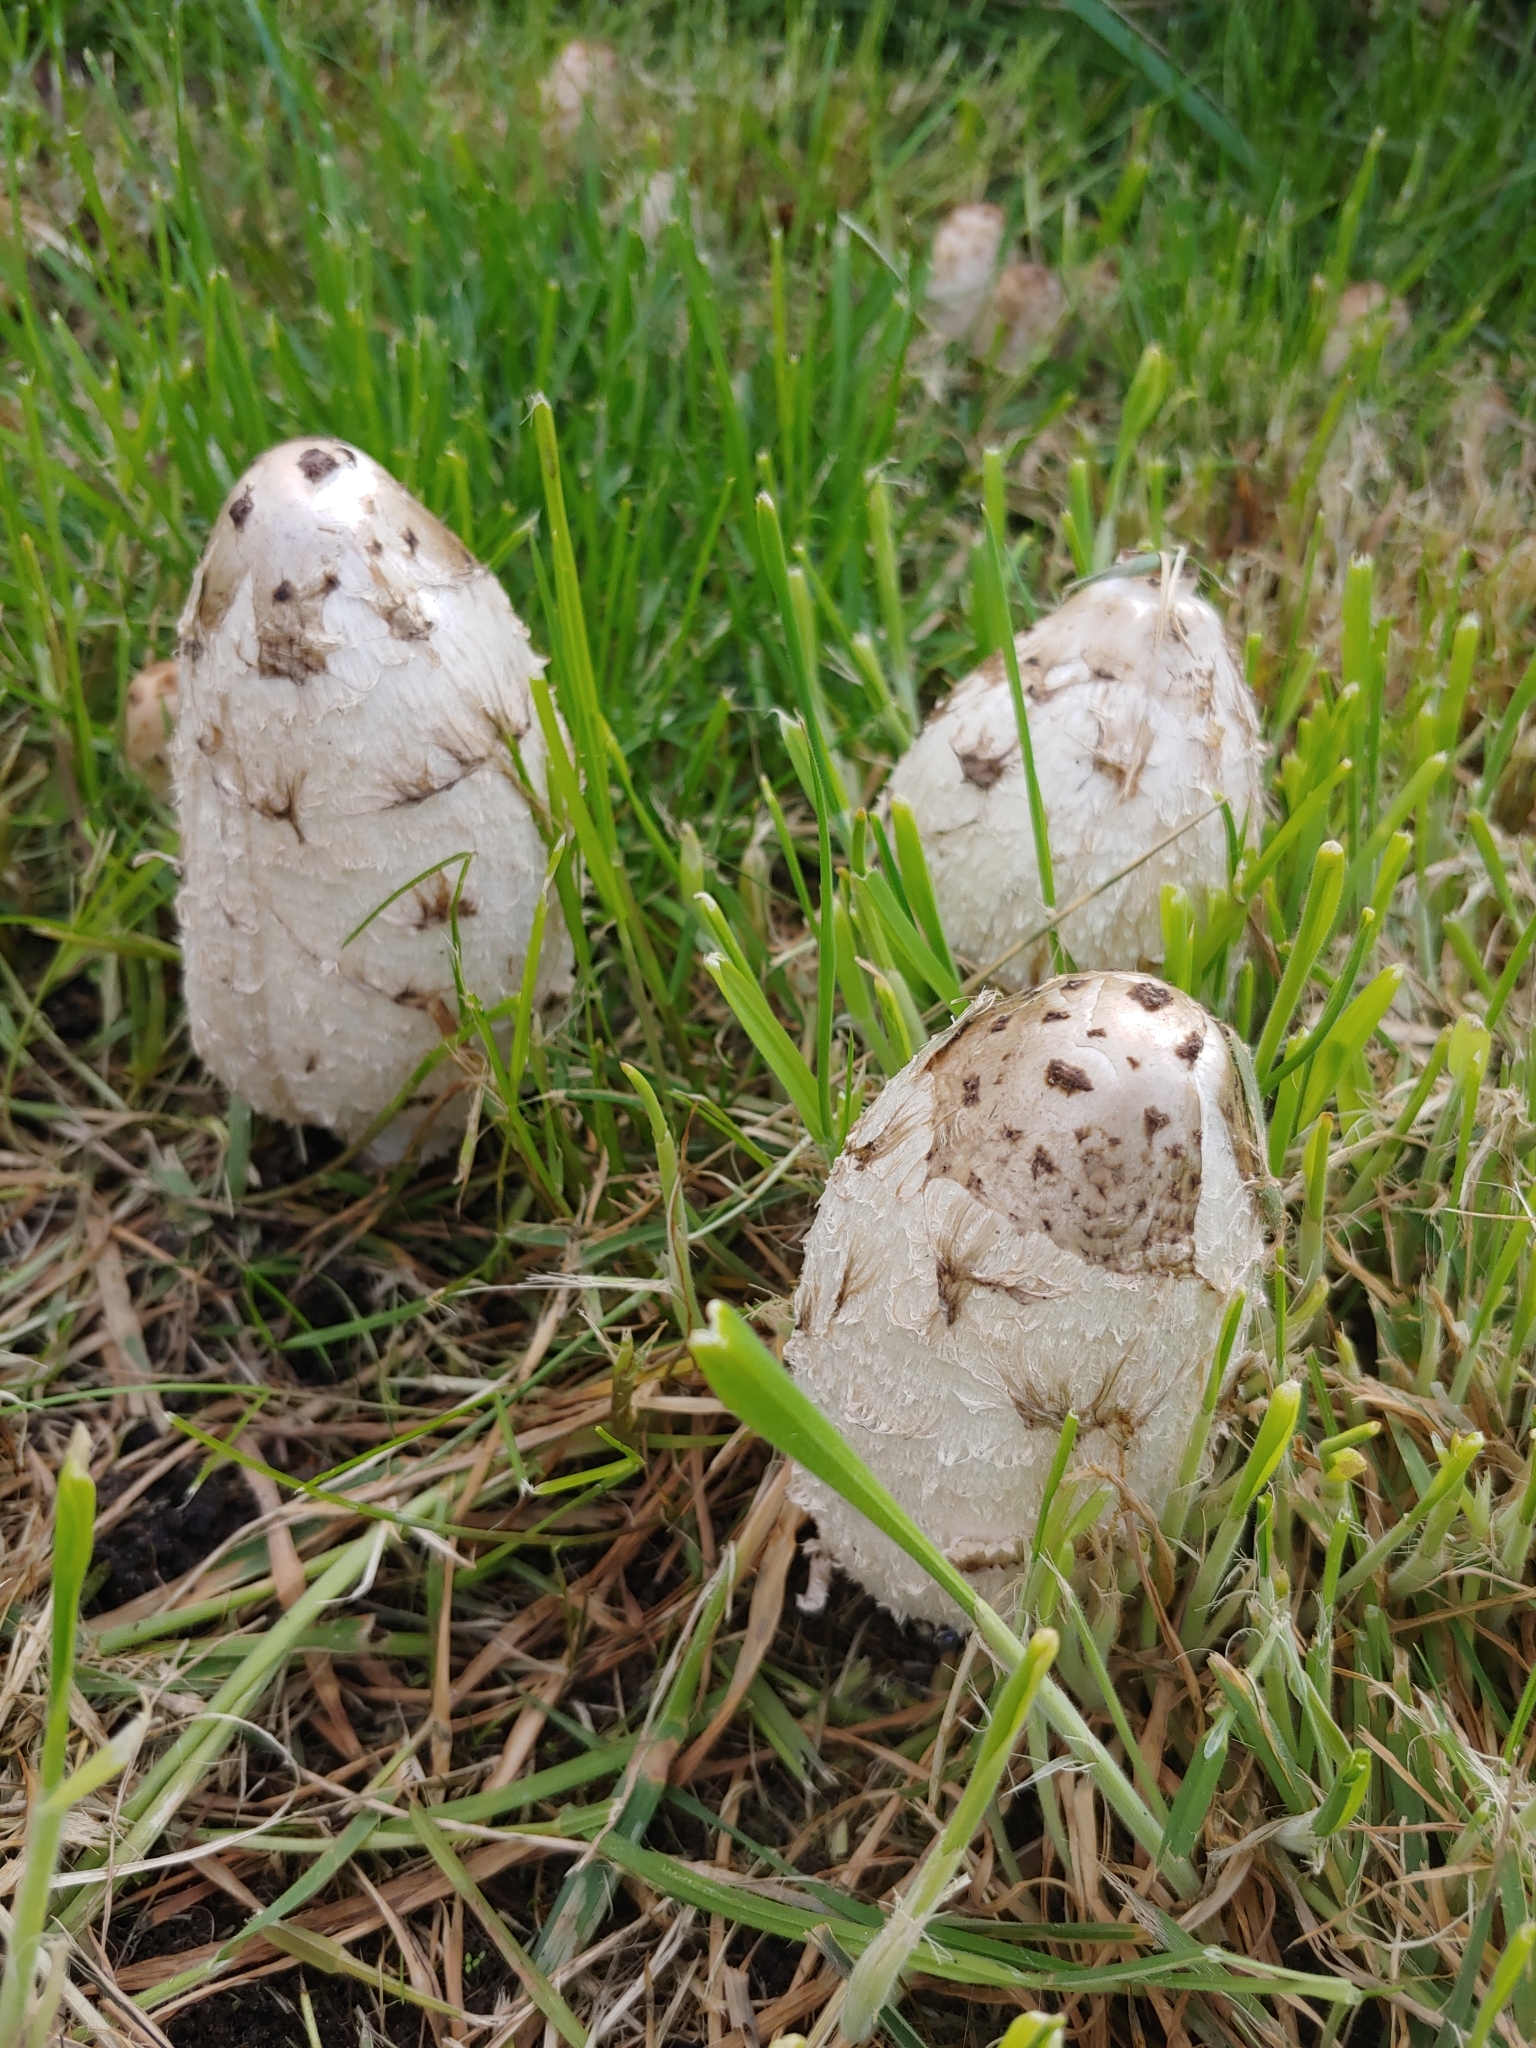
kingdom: Fungi
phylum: Basidiomycota
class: Agaricomycetes
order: Agaricales
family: Agaricaceae
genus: Coprinus
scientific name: Coprinus comatus
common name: Lawyer's wig
